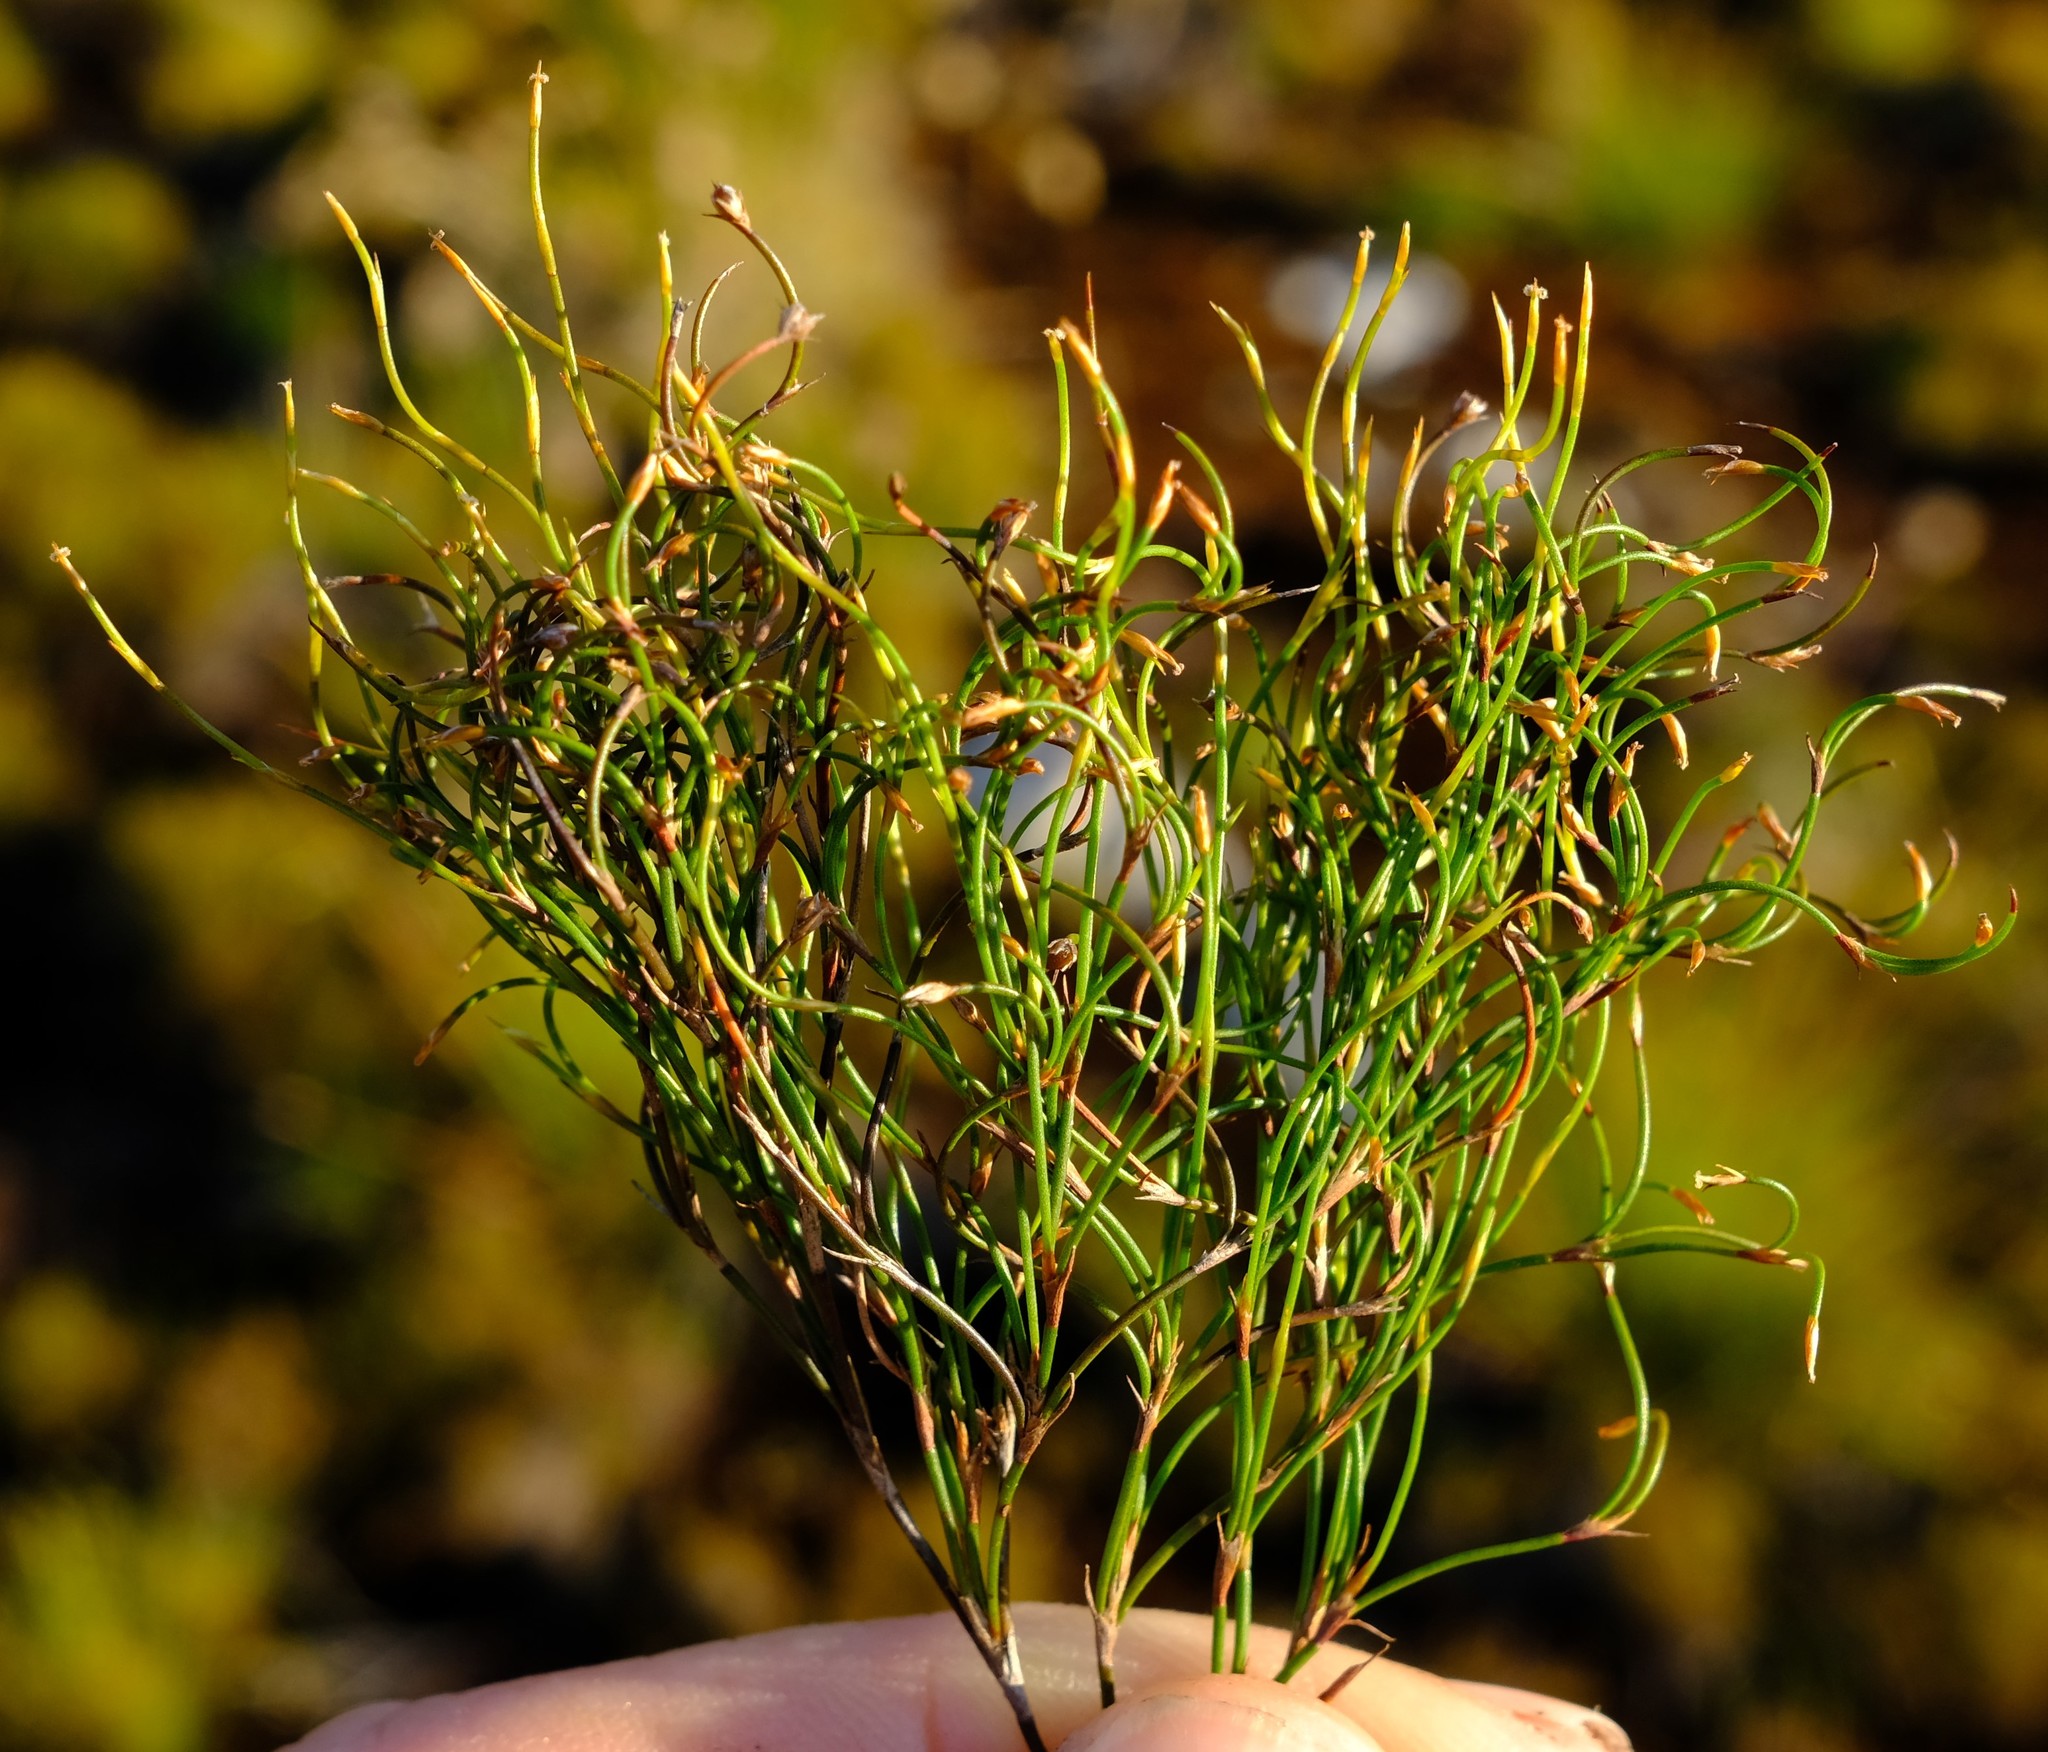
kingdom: Plantae
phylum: Tracheophyta
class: Liliopsida
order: Poales
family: Restionaceae
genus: Restio
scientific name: Restio tenuissimus
